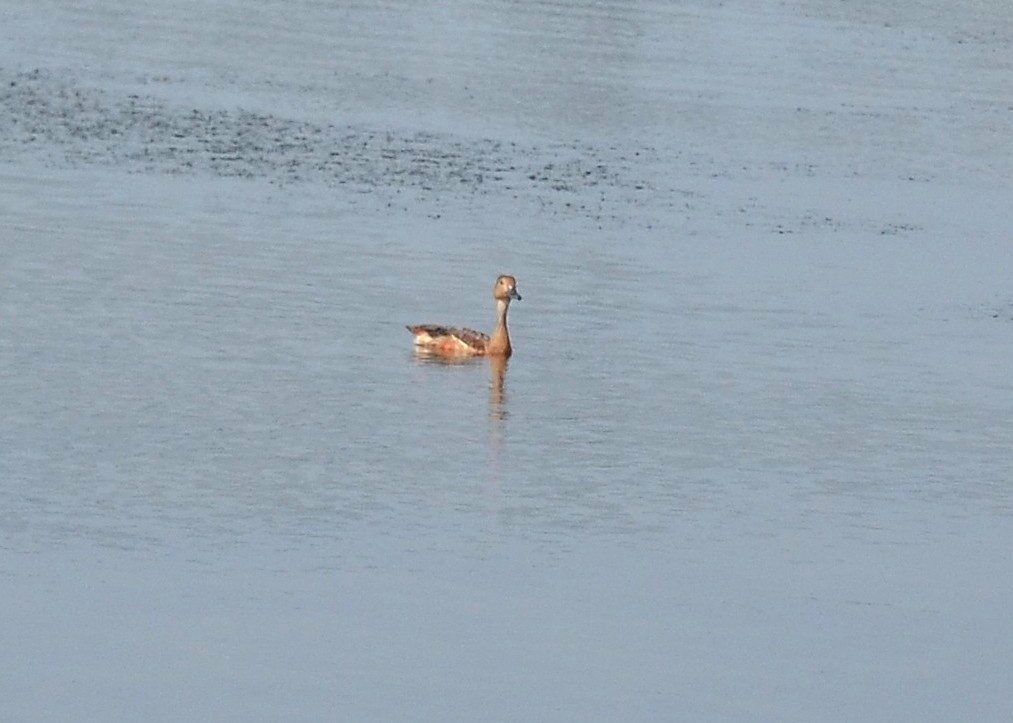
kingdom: Animalia
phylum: Chordata
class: Aves
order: Anseriformes
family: Anatidae
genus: Dendrocygna
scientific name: Dendrocygna javanica
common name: Lesser whistling-duck
